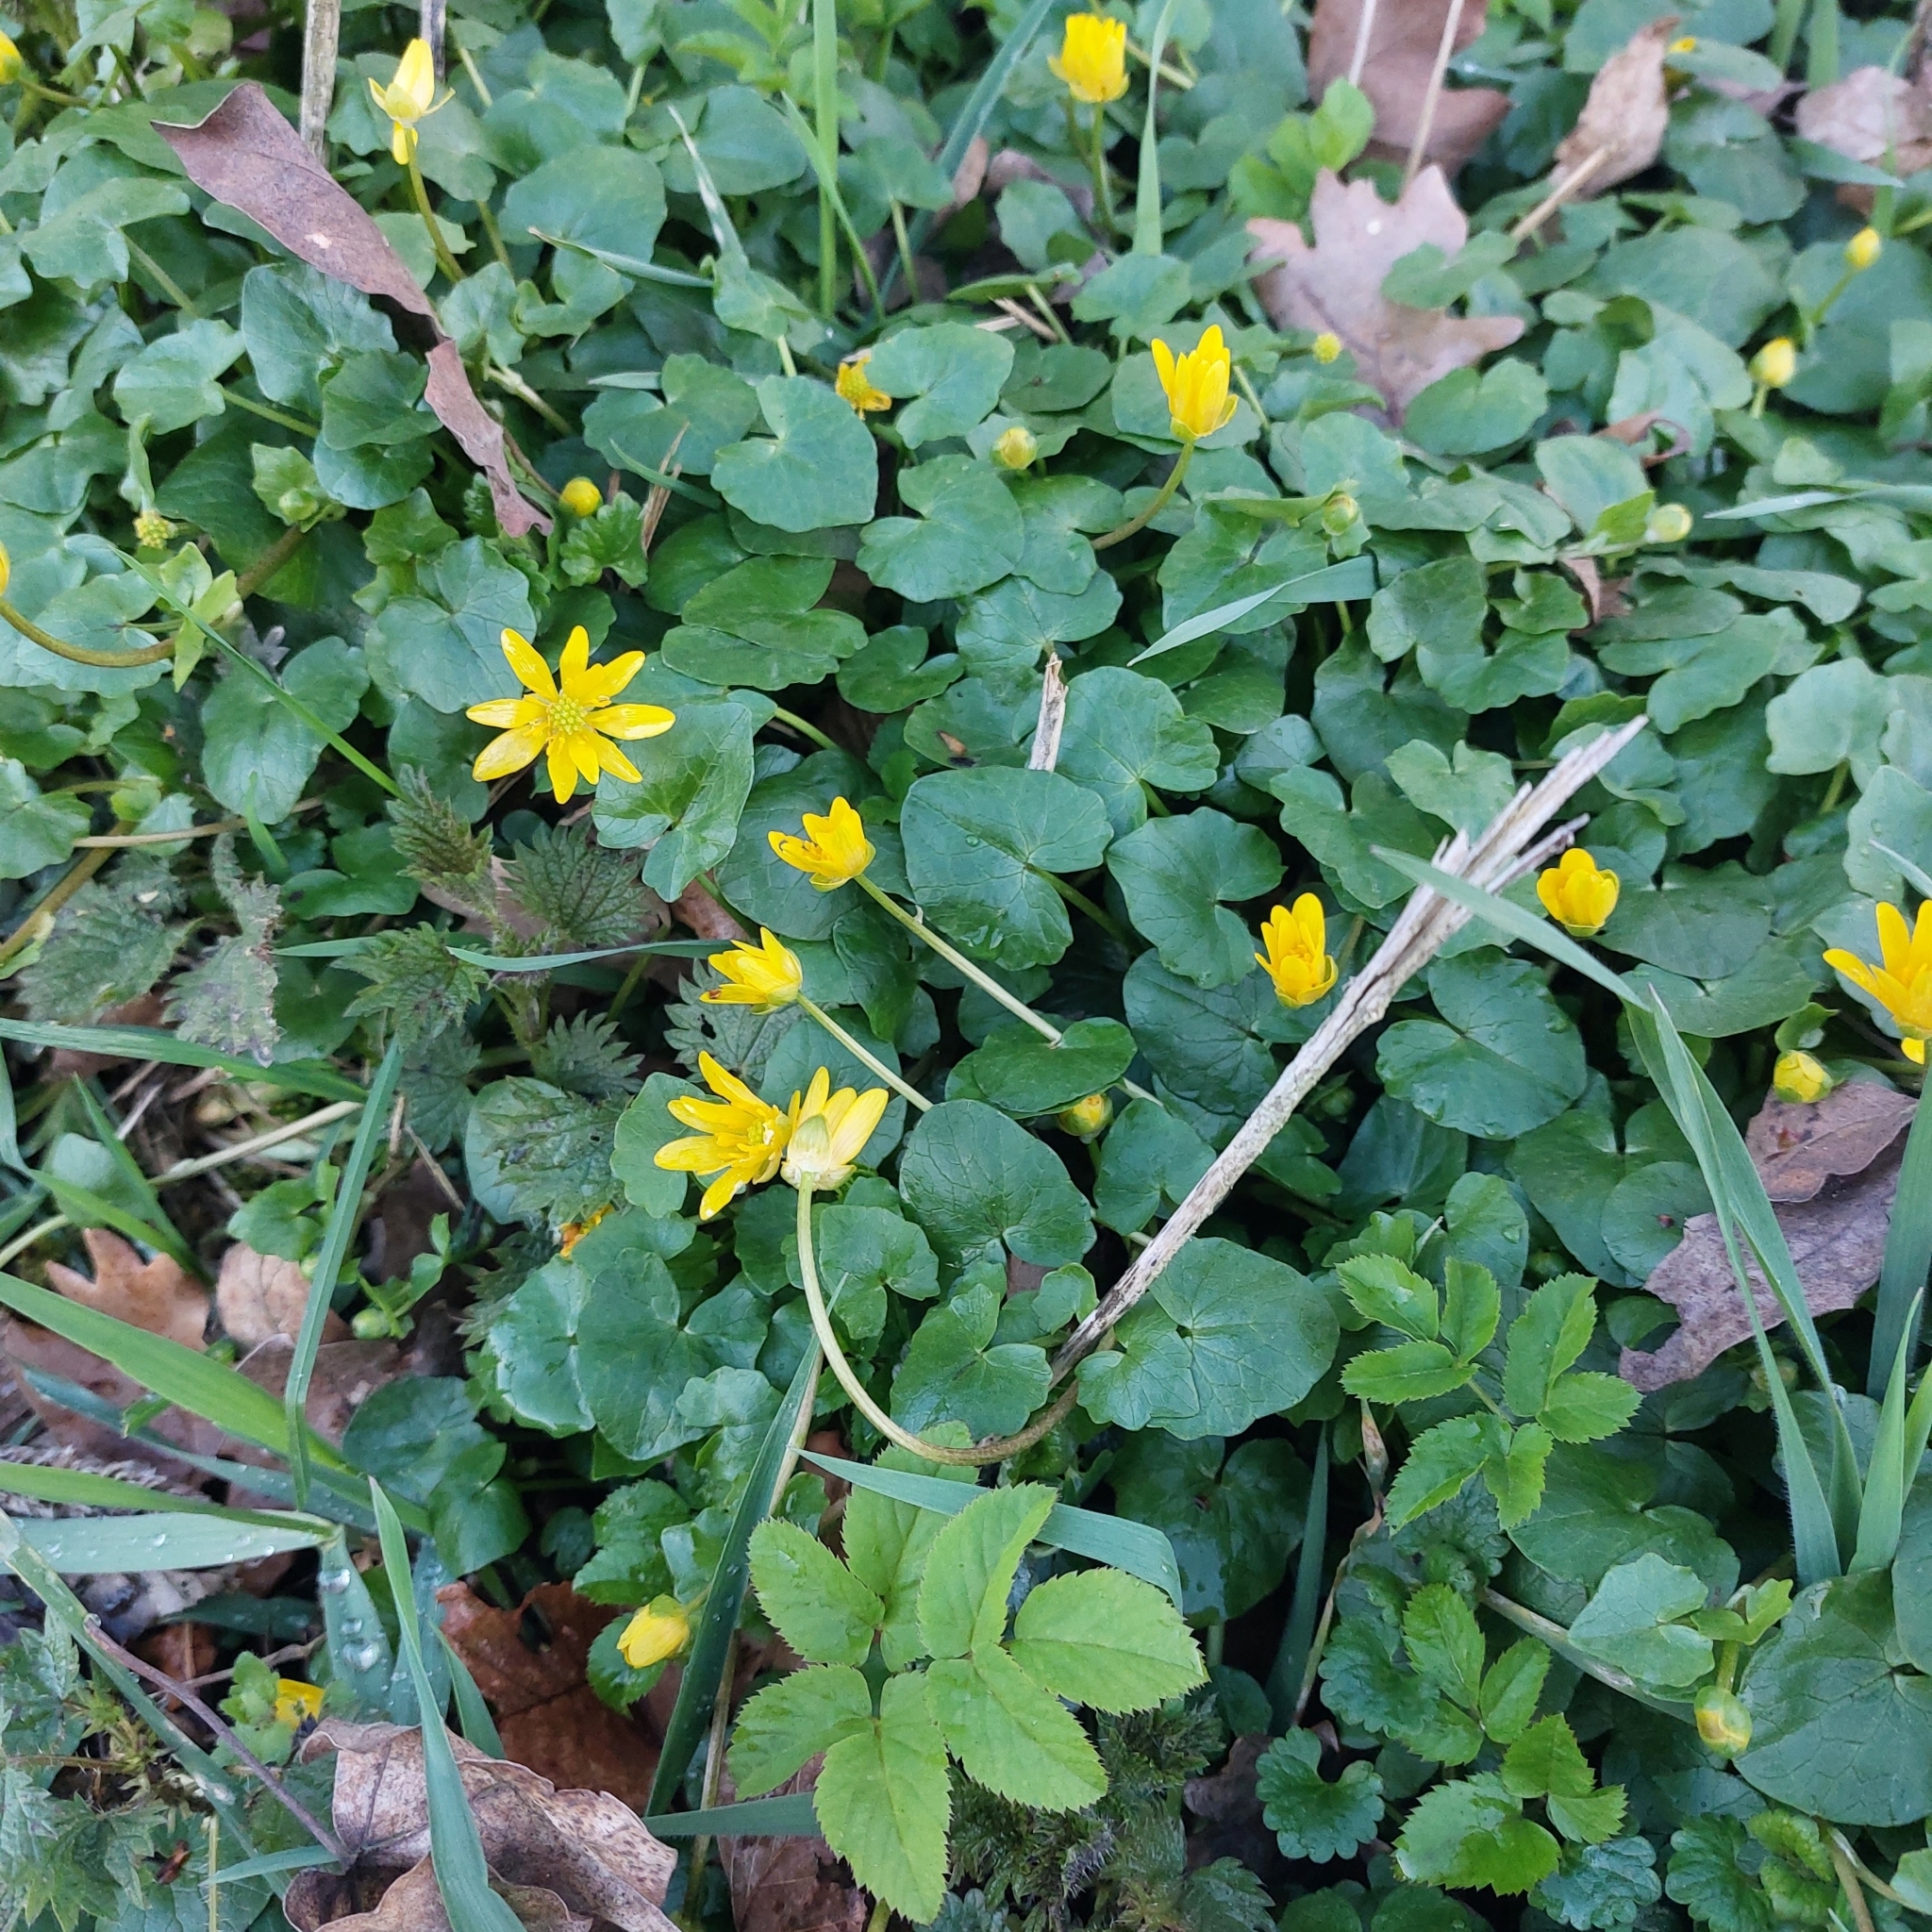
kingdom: Plantae
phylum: Tracheophyta
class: Magnoliopsida
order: Ranunculales
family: Ranunculaceae
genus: Ficaria
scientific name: Ficaria verna
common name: Lesser celandine
